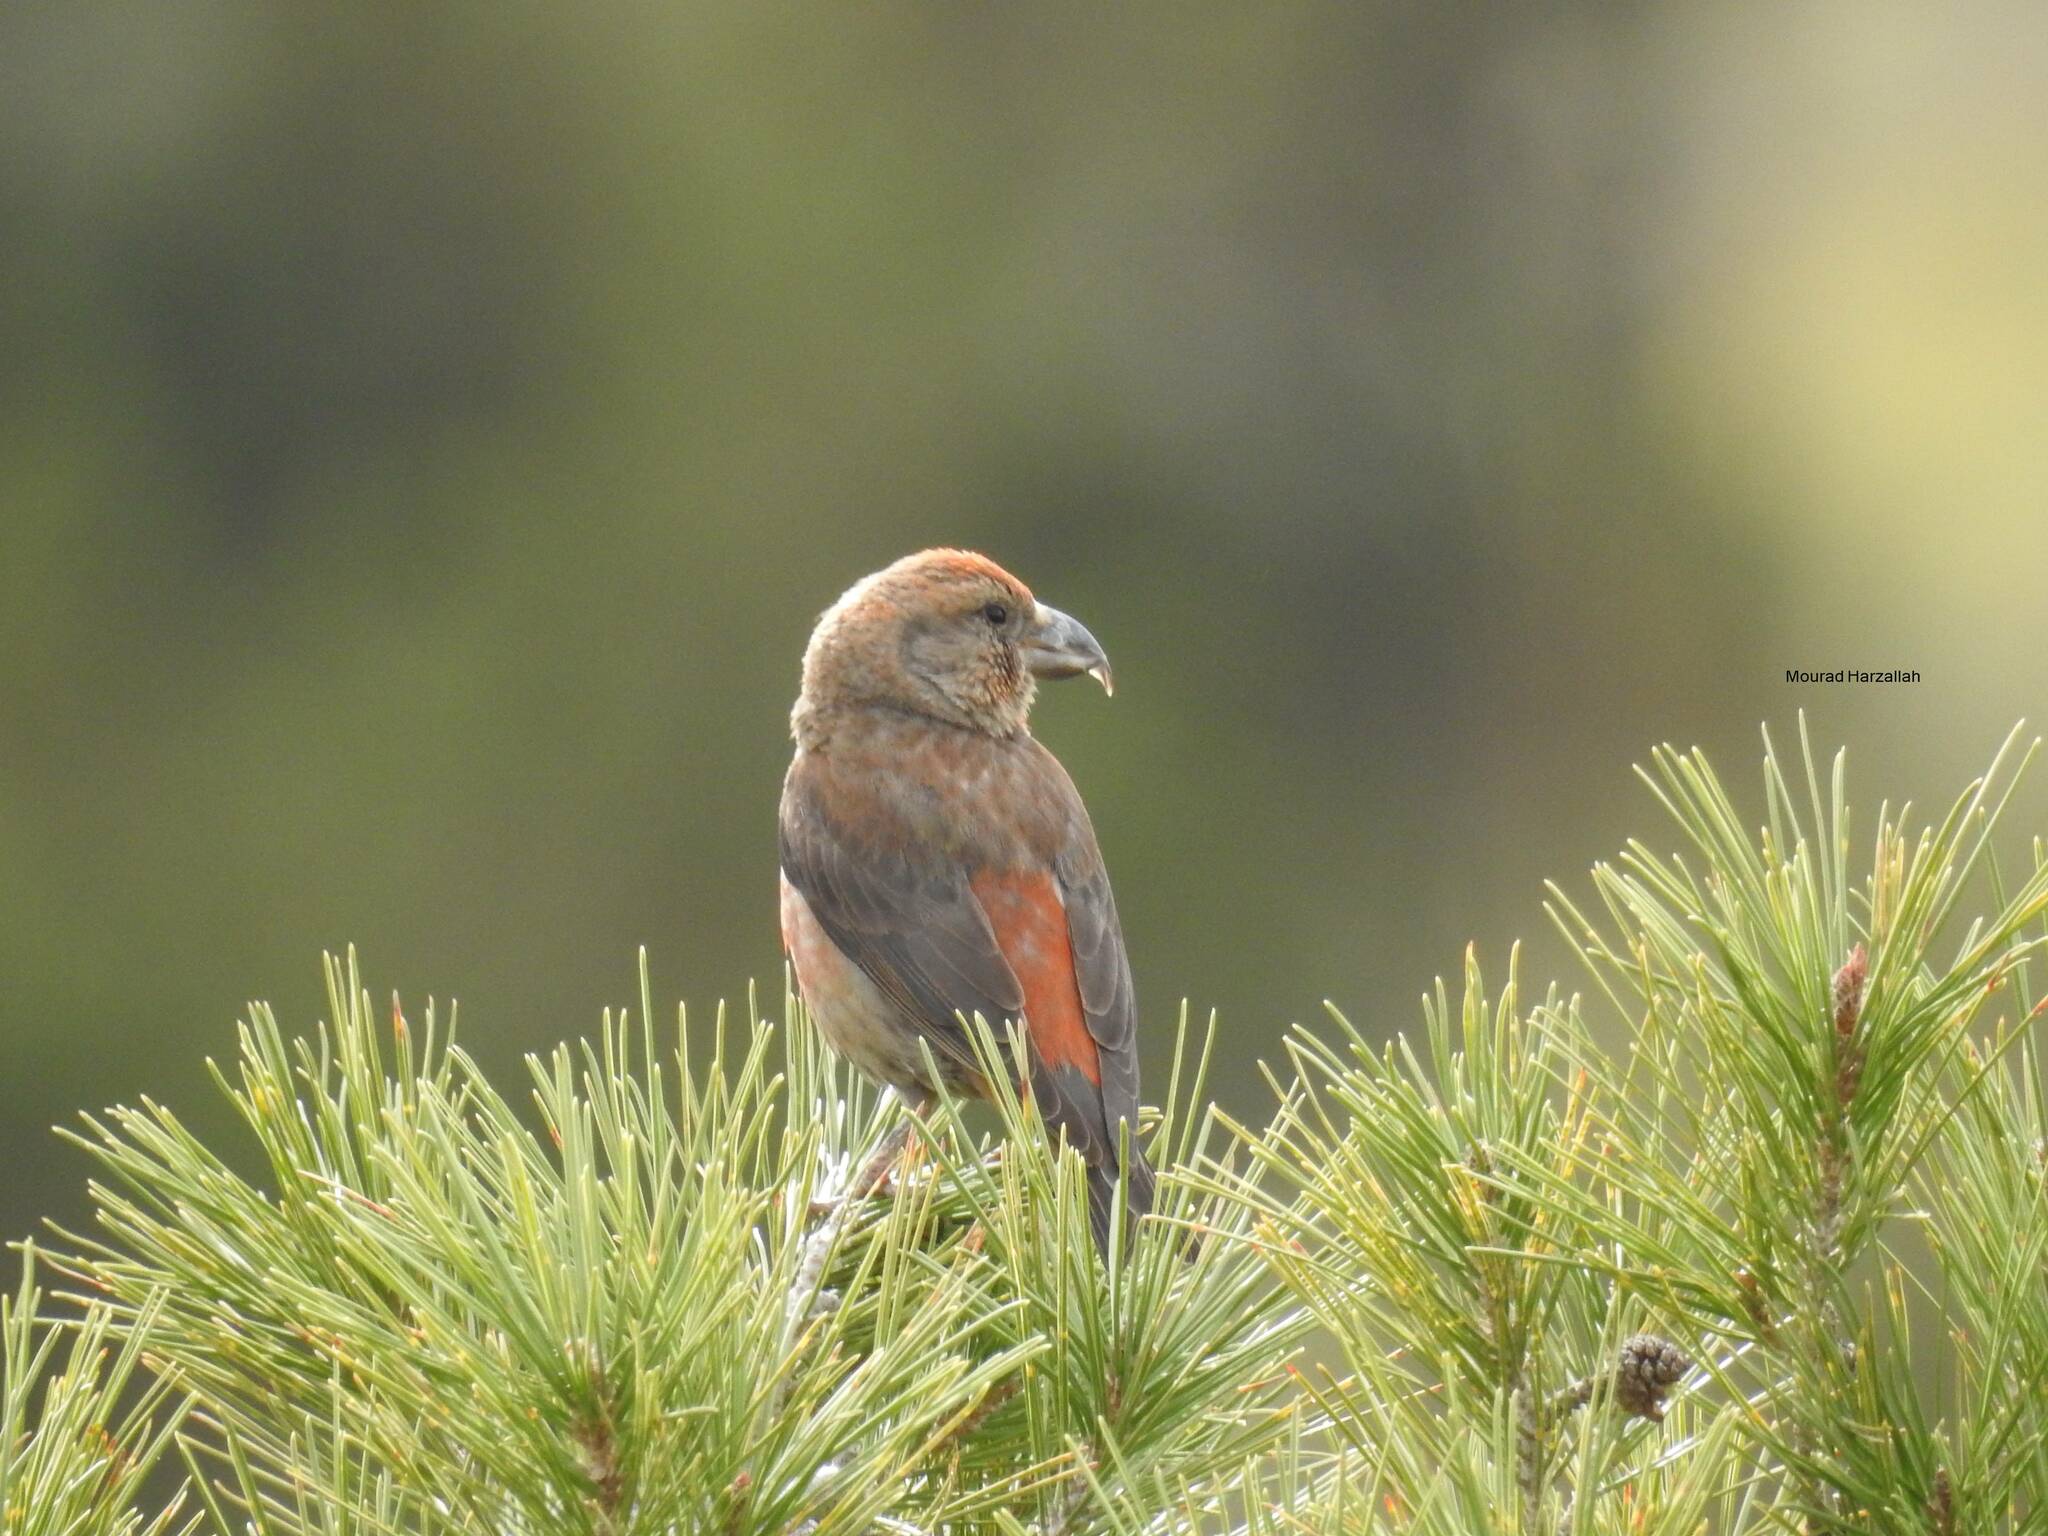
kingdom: Animalia
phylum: Chordata
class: Aves
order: Passeriformes
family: Fringillidae
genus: Loxia
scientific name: Loxia curvirostra
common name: Red crossbill
